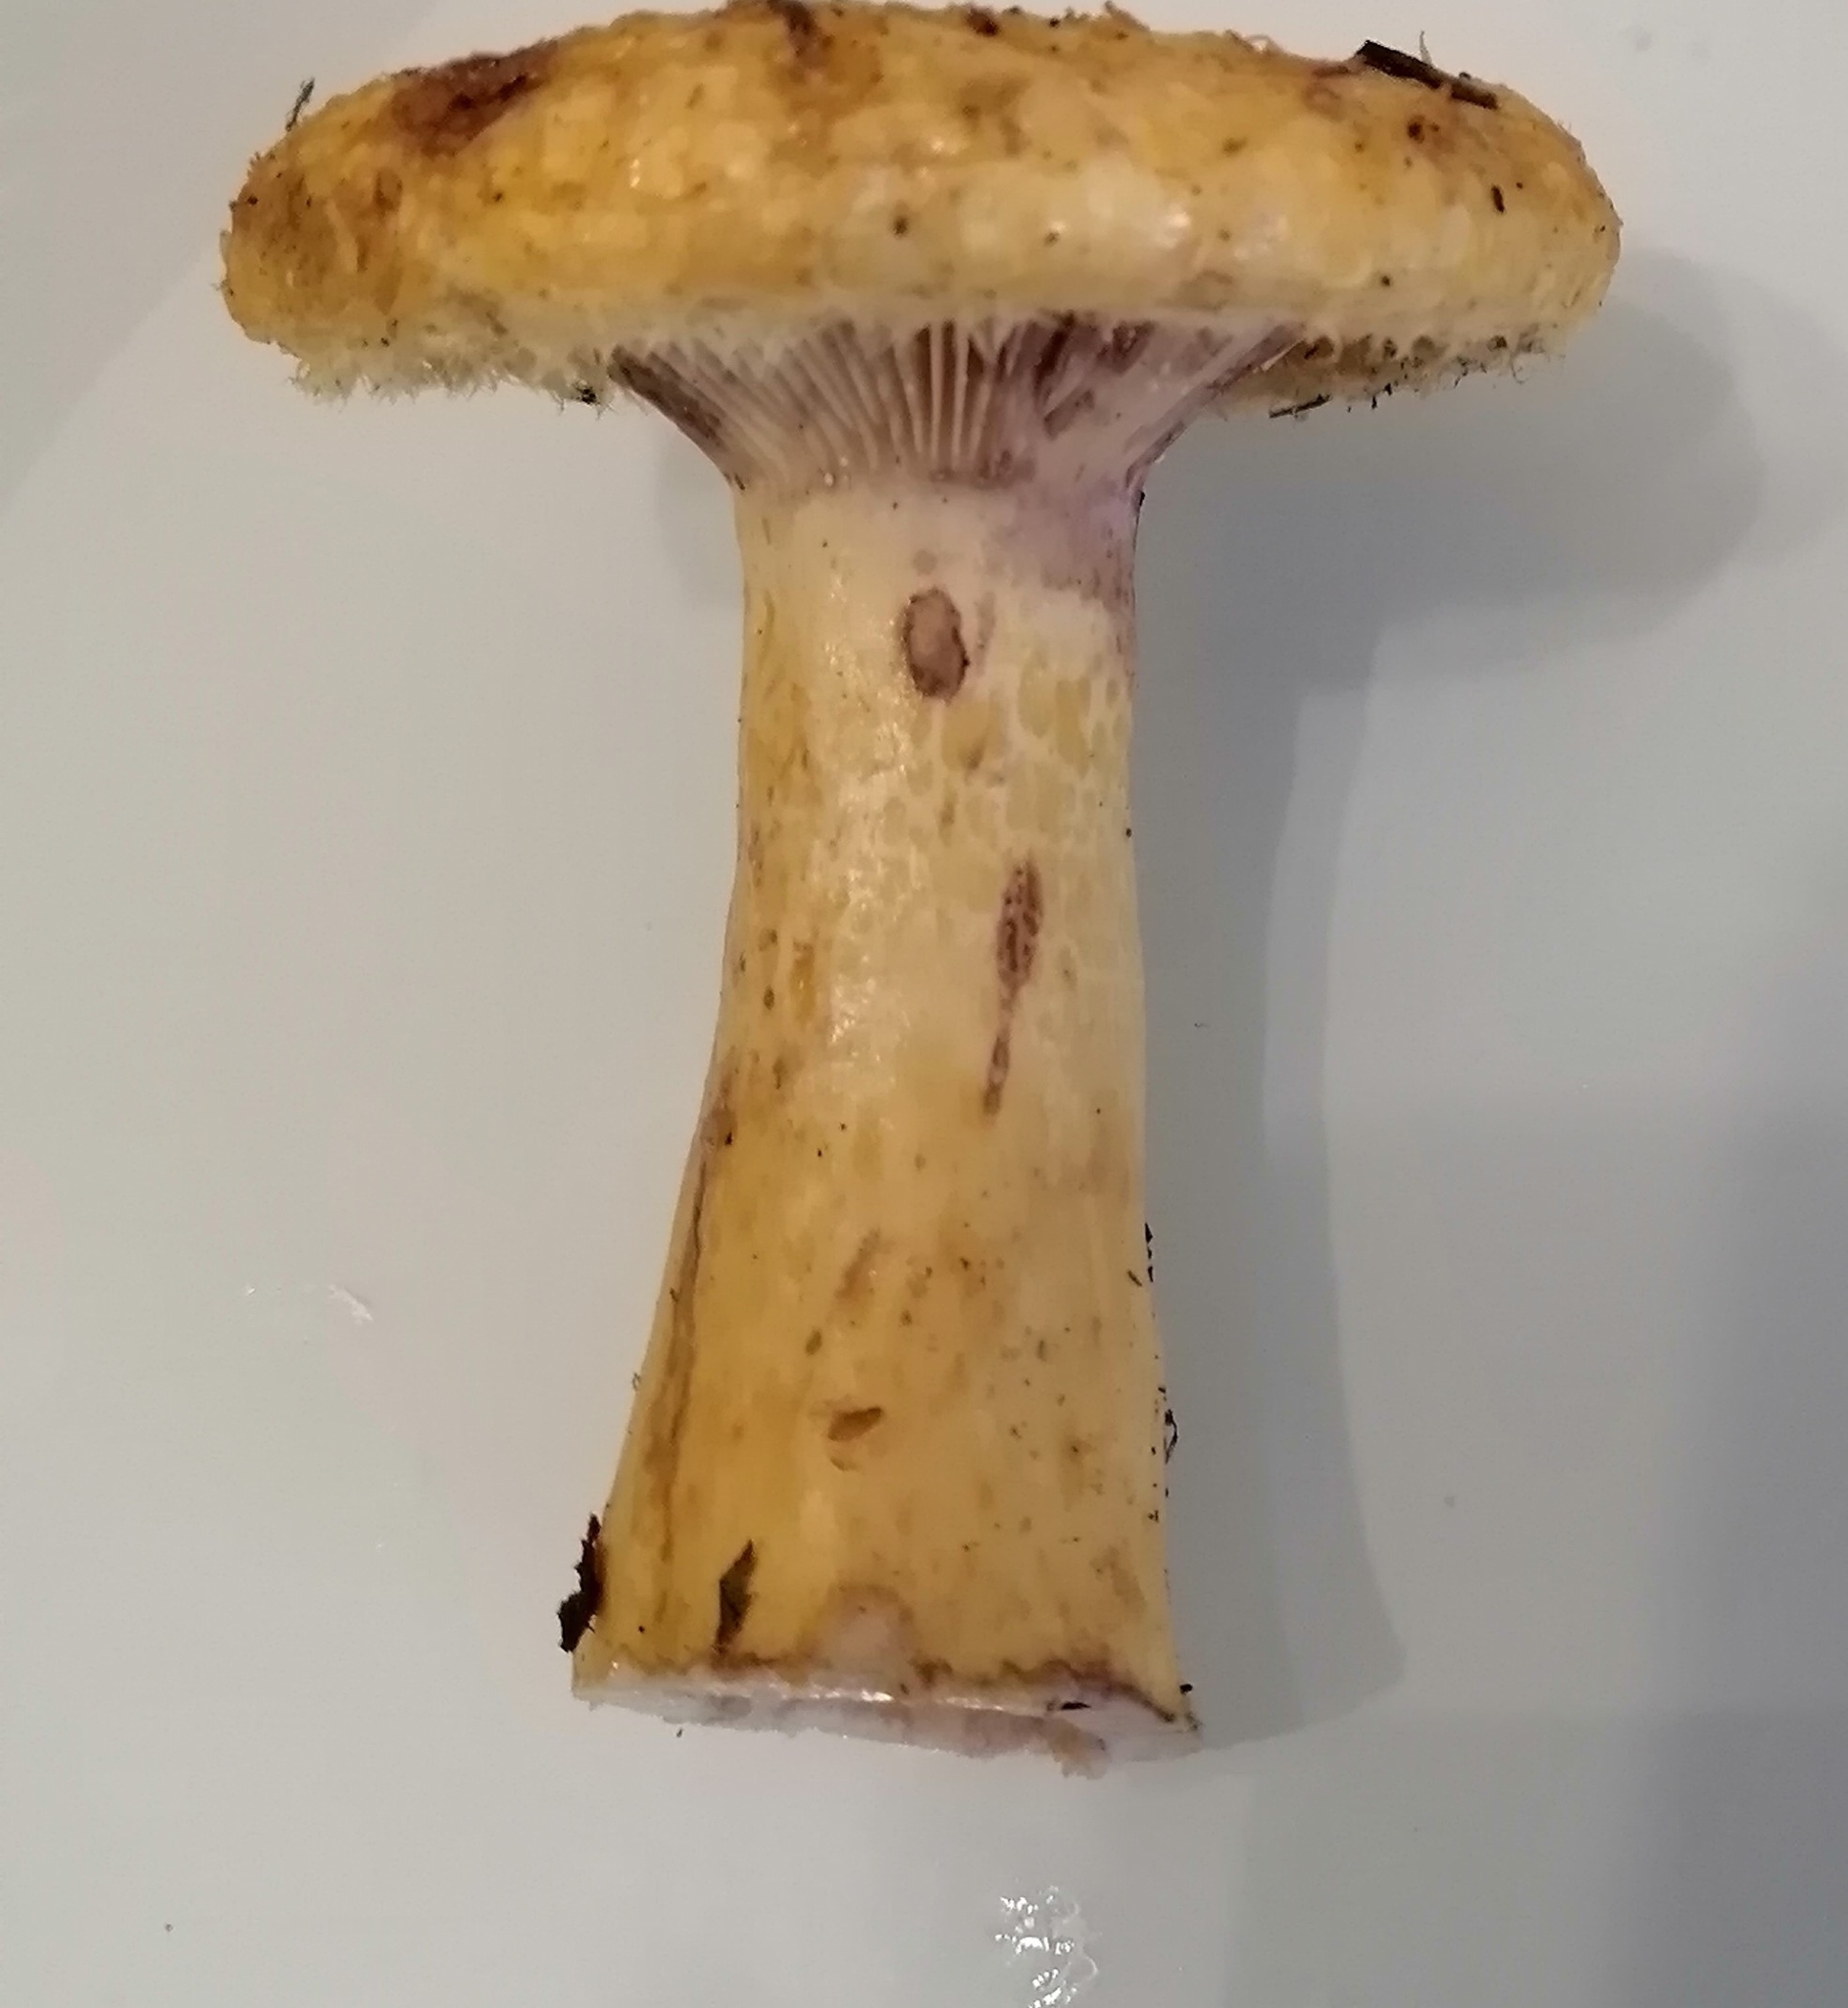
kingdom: Fungi
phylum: Basidiomycota
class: Agaricomycetes
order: Russulales
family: Russulaceae
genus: Lactarius
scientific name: Lactarius repraesentaneus
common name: Yellow bearded milkcap
